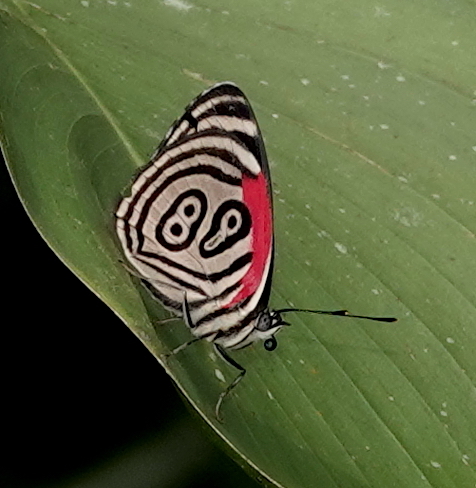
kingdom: Animalia
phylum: Arthropoda
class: Insecta
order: Lepidoptera
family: Nymphalidae
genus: Diaethria
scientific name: Diaethria clymena
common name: Widespread eighty-eight
